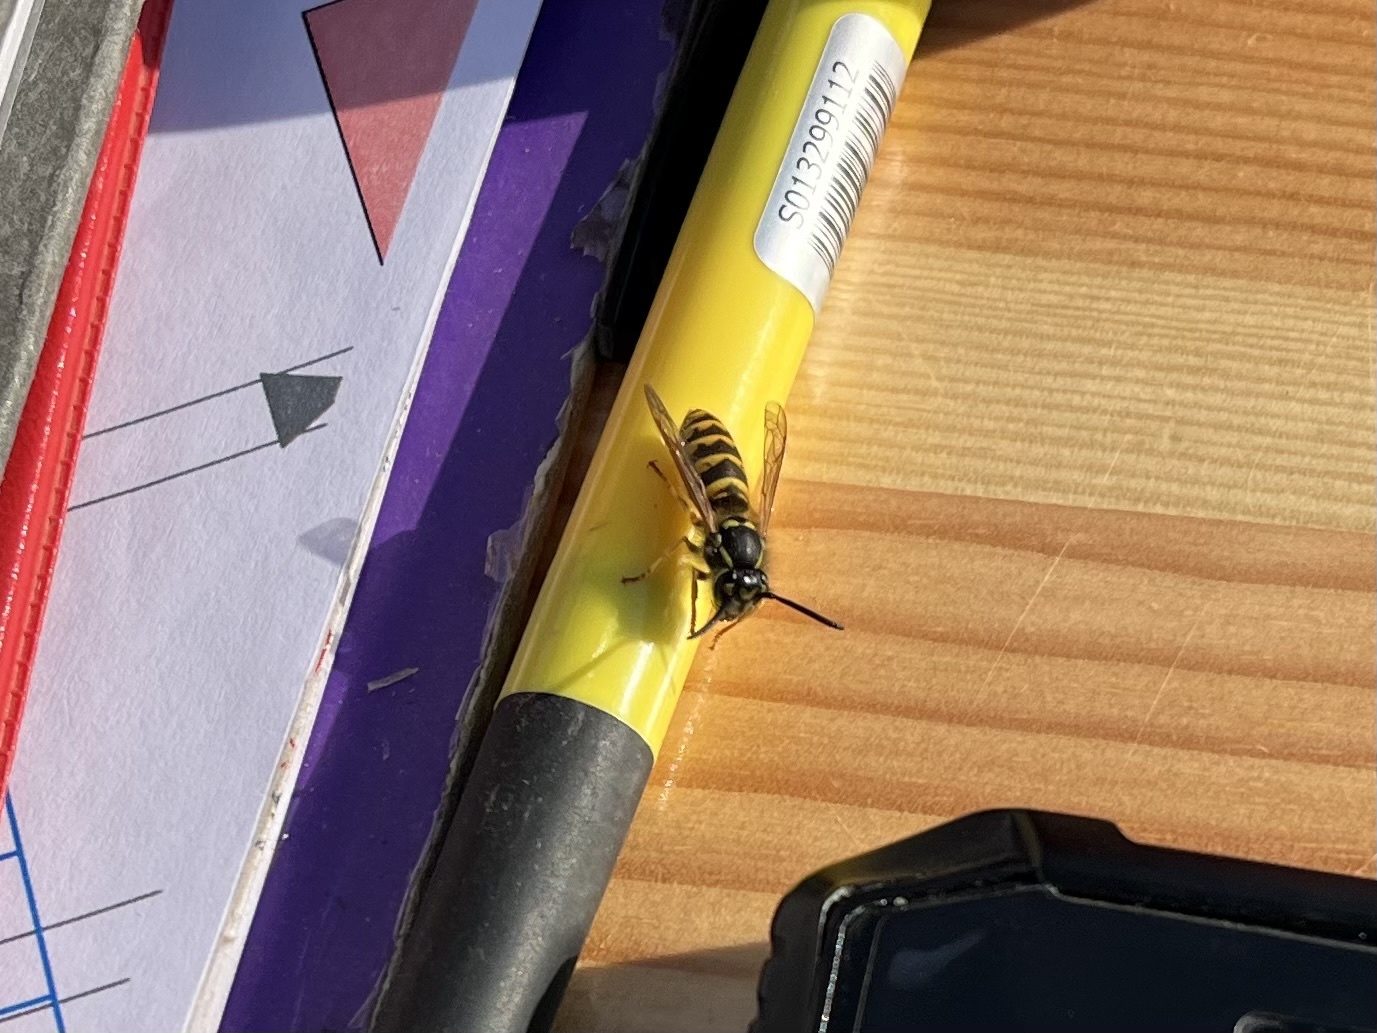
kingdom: Animalia
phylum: Arthropoda
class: Insecta
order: Hymenoptera
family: Vespidae
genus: Vespula
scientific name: Vespula vulgaris
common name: Common wasp
